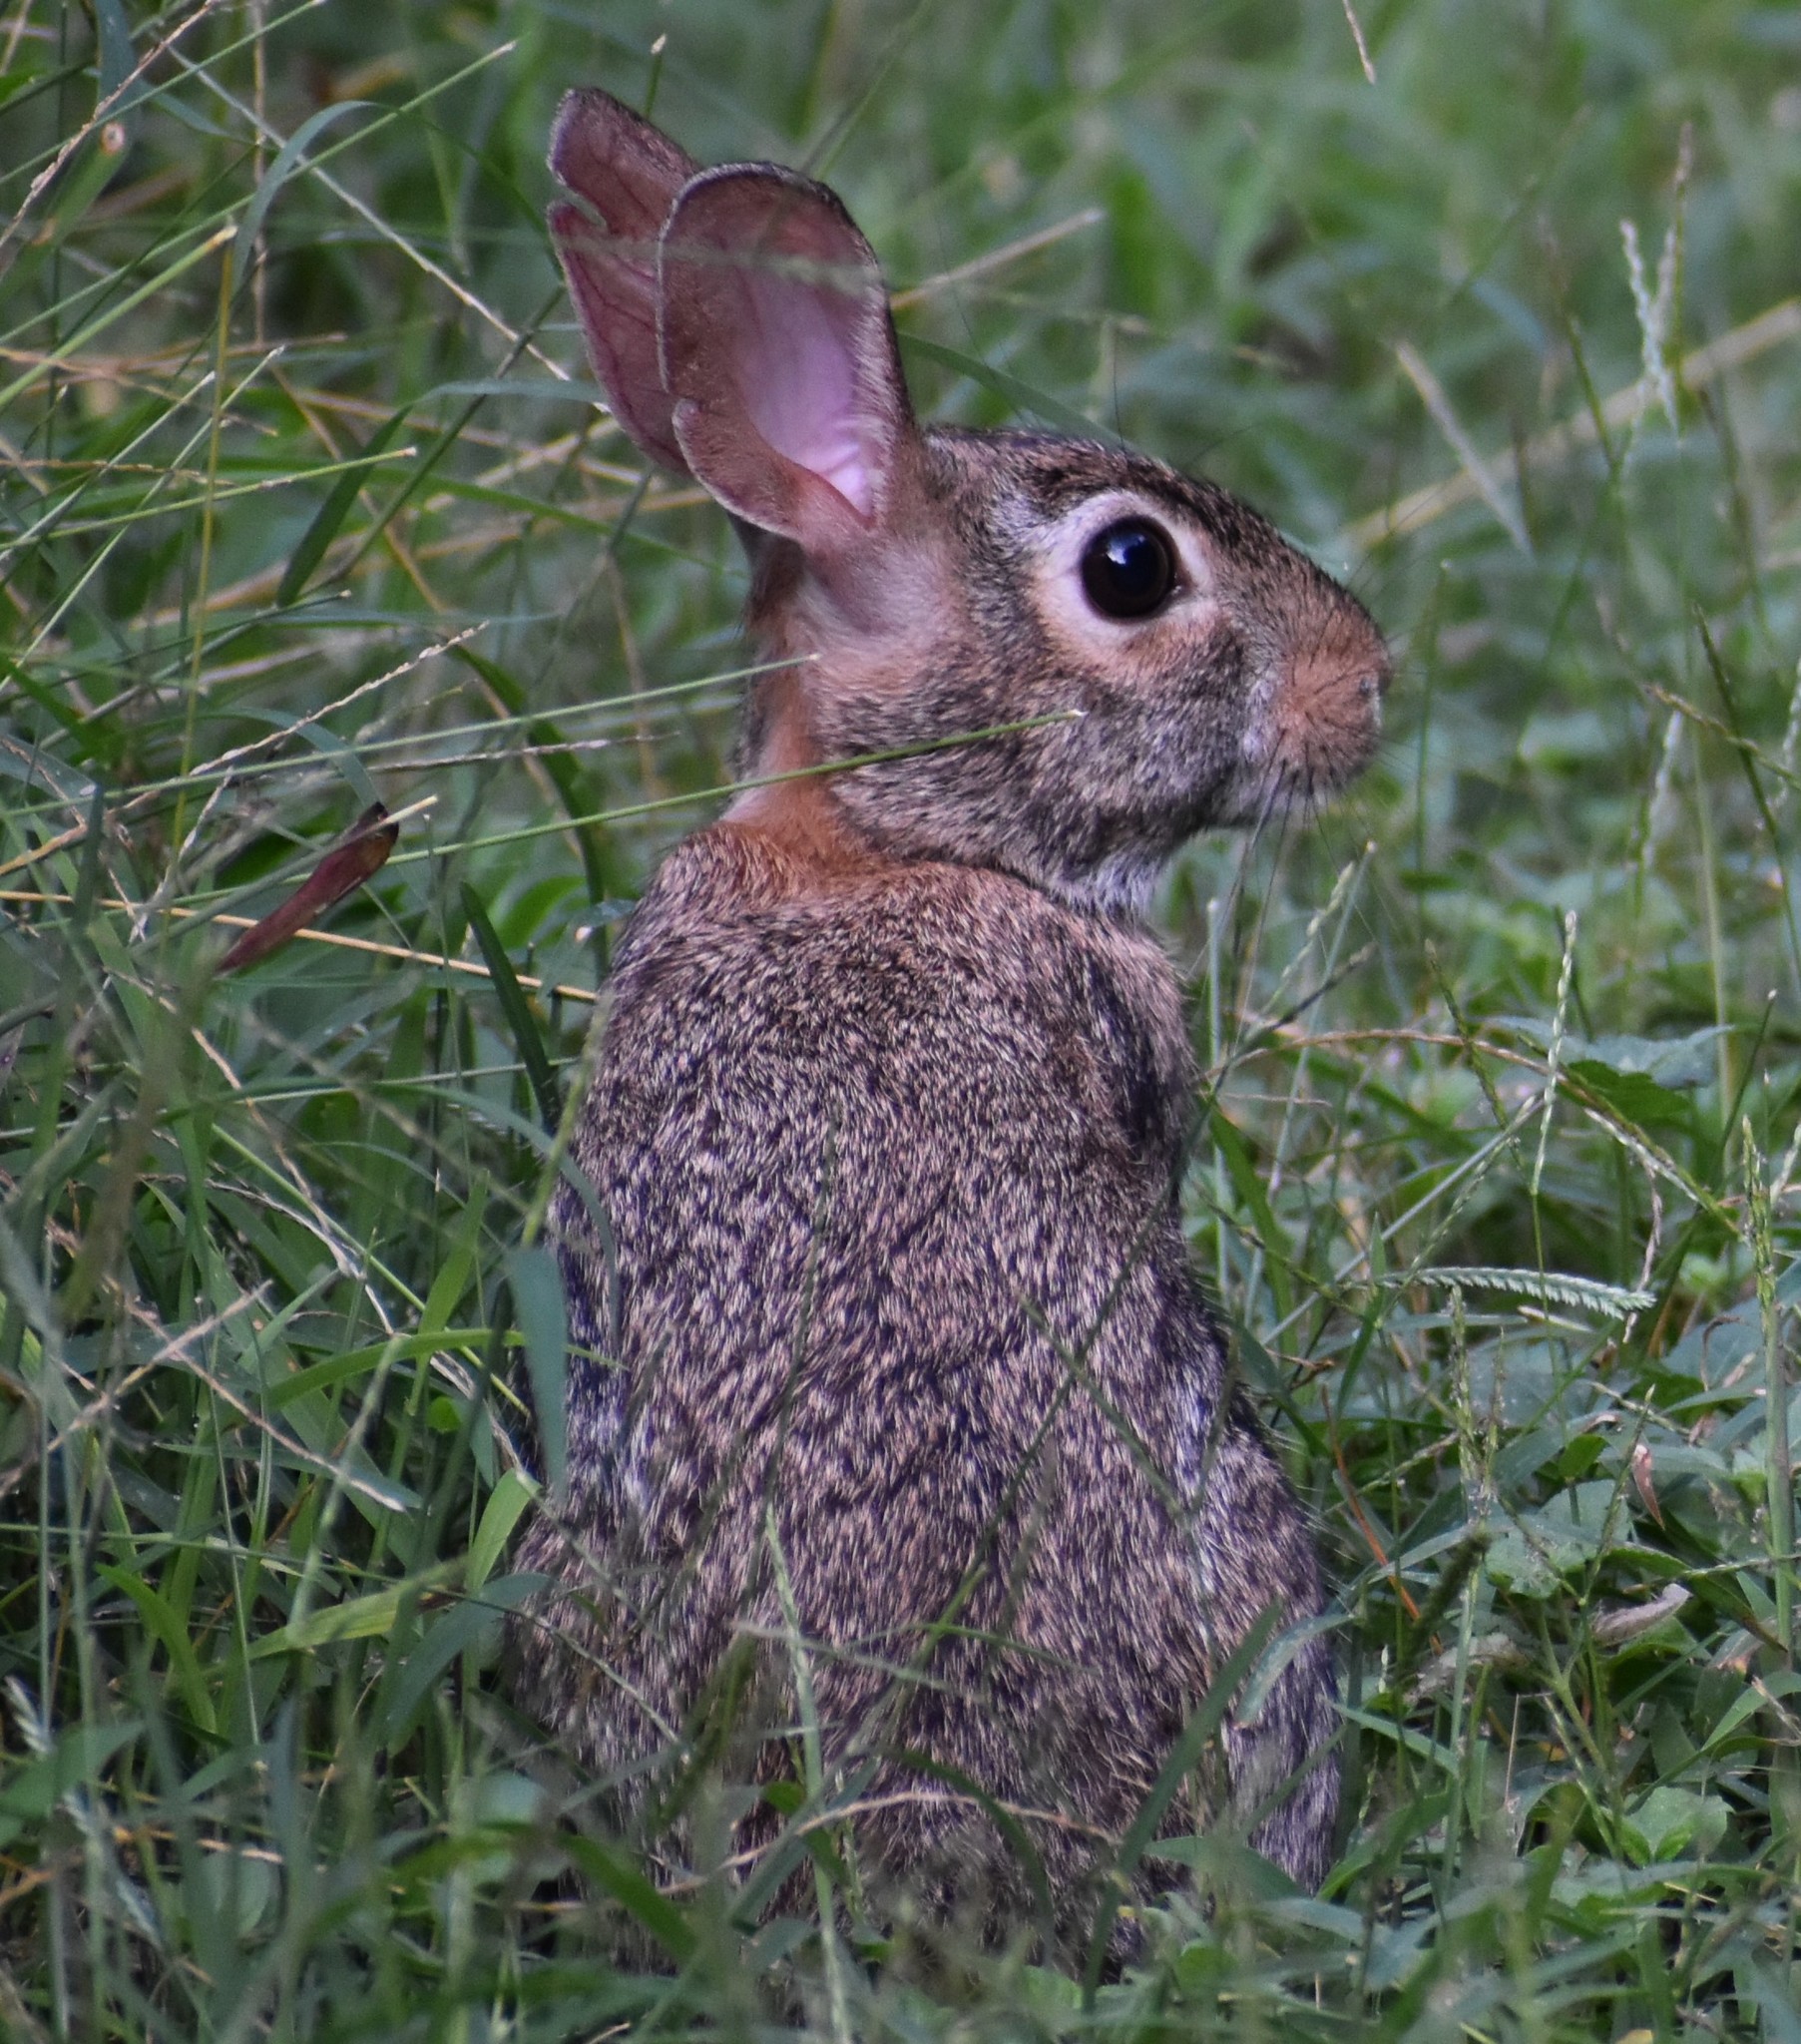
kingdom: Animalia
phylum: Chordata
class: Mammalia
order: Lagomorpha
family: Leporidae
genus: Sylvilagus
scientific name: Sylvilagus floridanus
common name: Eastern cottontail
